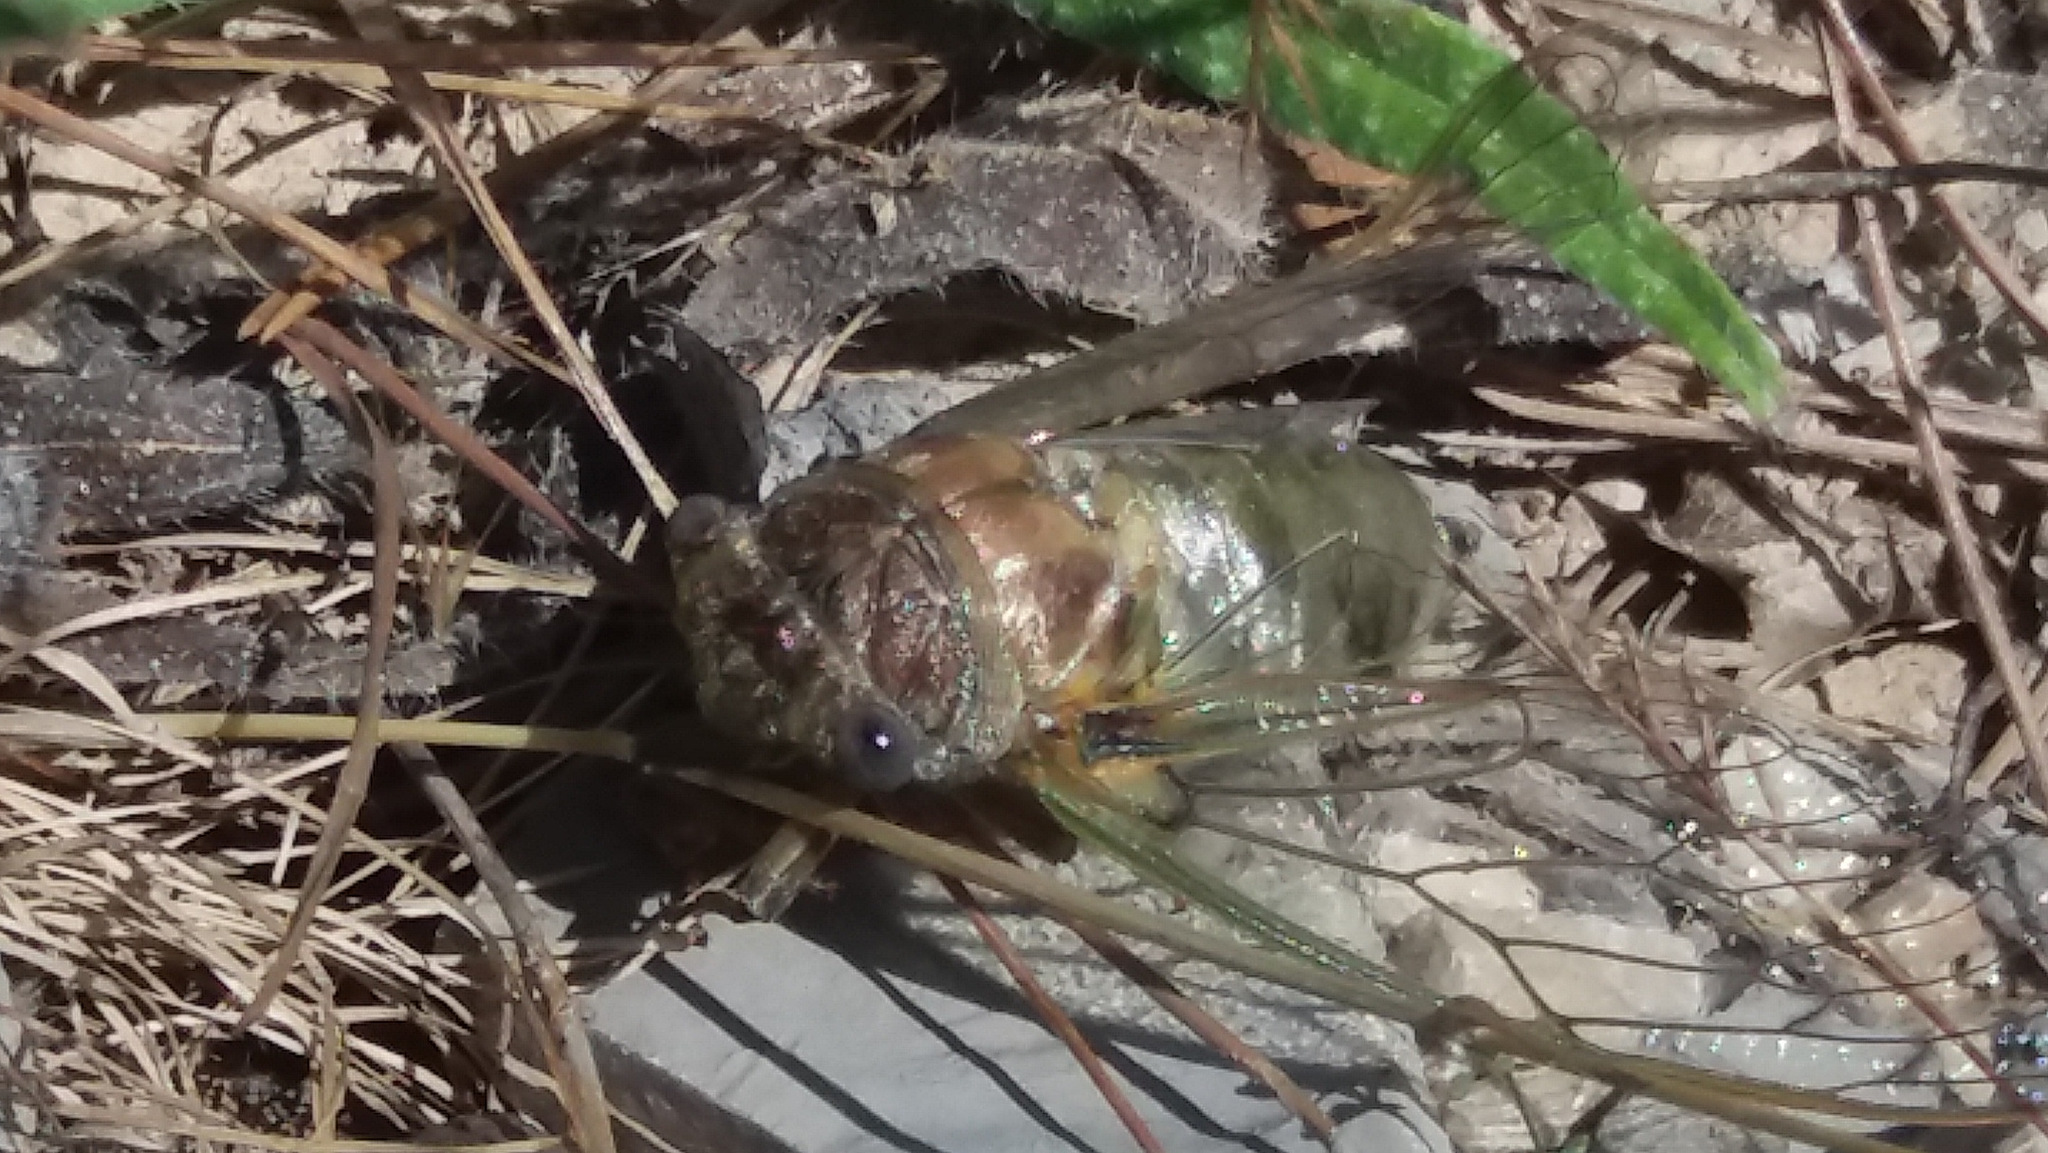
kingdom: Animalia
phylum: Arthropoda
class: Insecta
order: Hemiptera
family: Cicadidae
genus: Lyristes
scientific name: Lyristes plebejus
